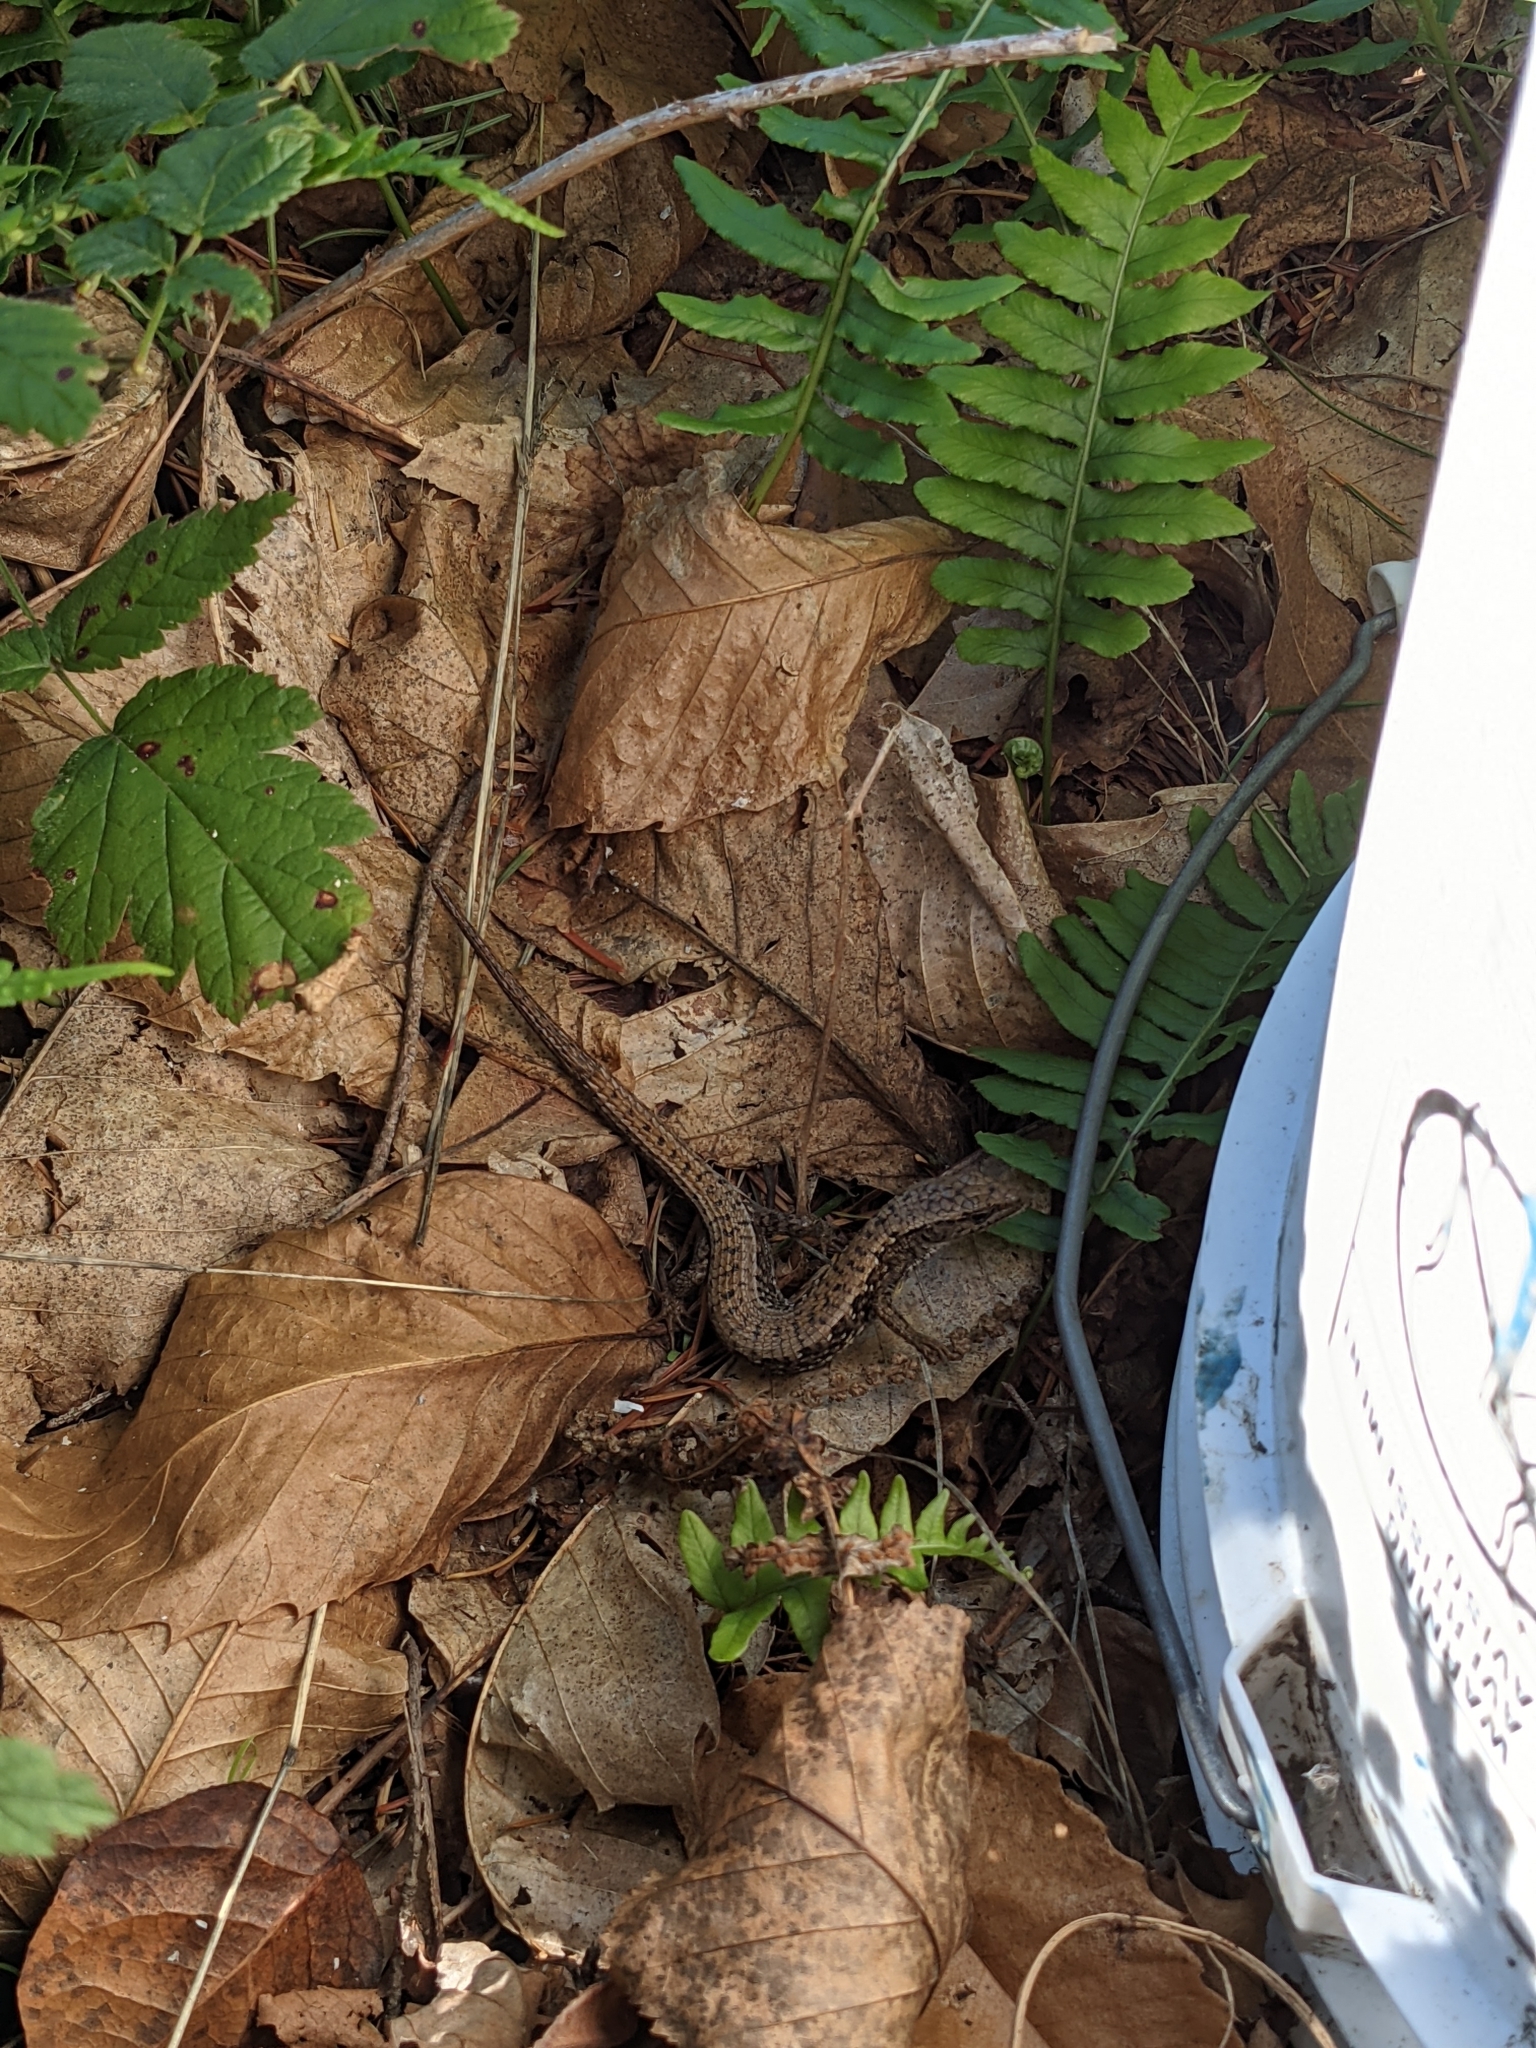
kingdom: Animalia
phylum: Chordata
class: Squamata
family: Anguidae
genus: Elgaria
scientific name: Elgaria coerulea
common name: Northern alligator lizard
